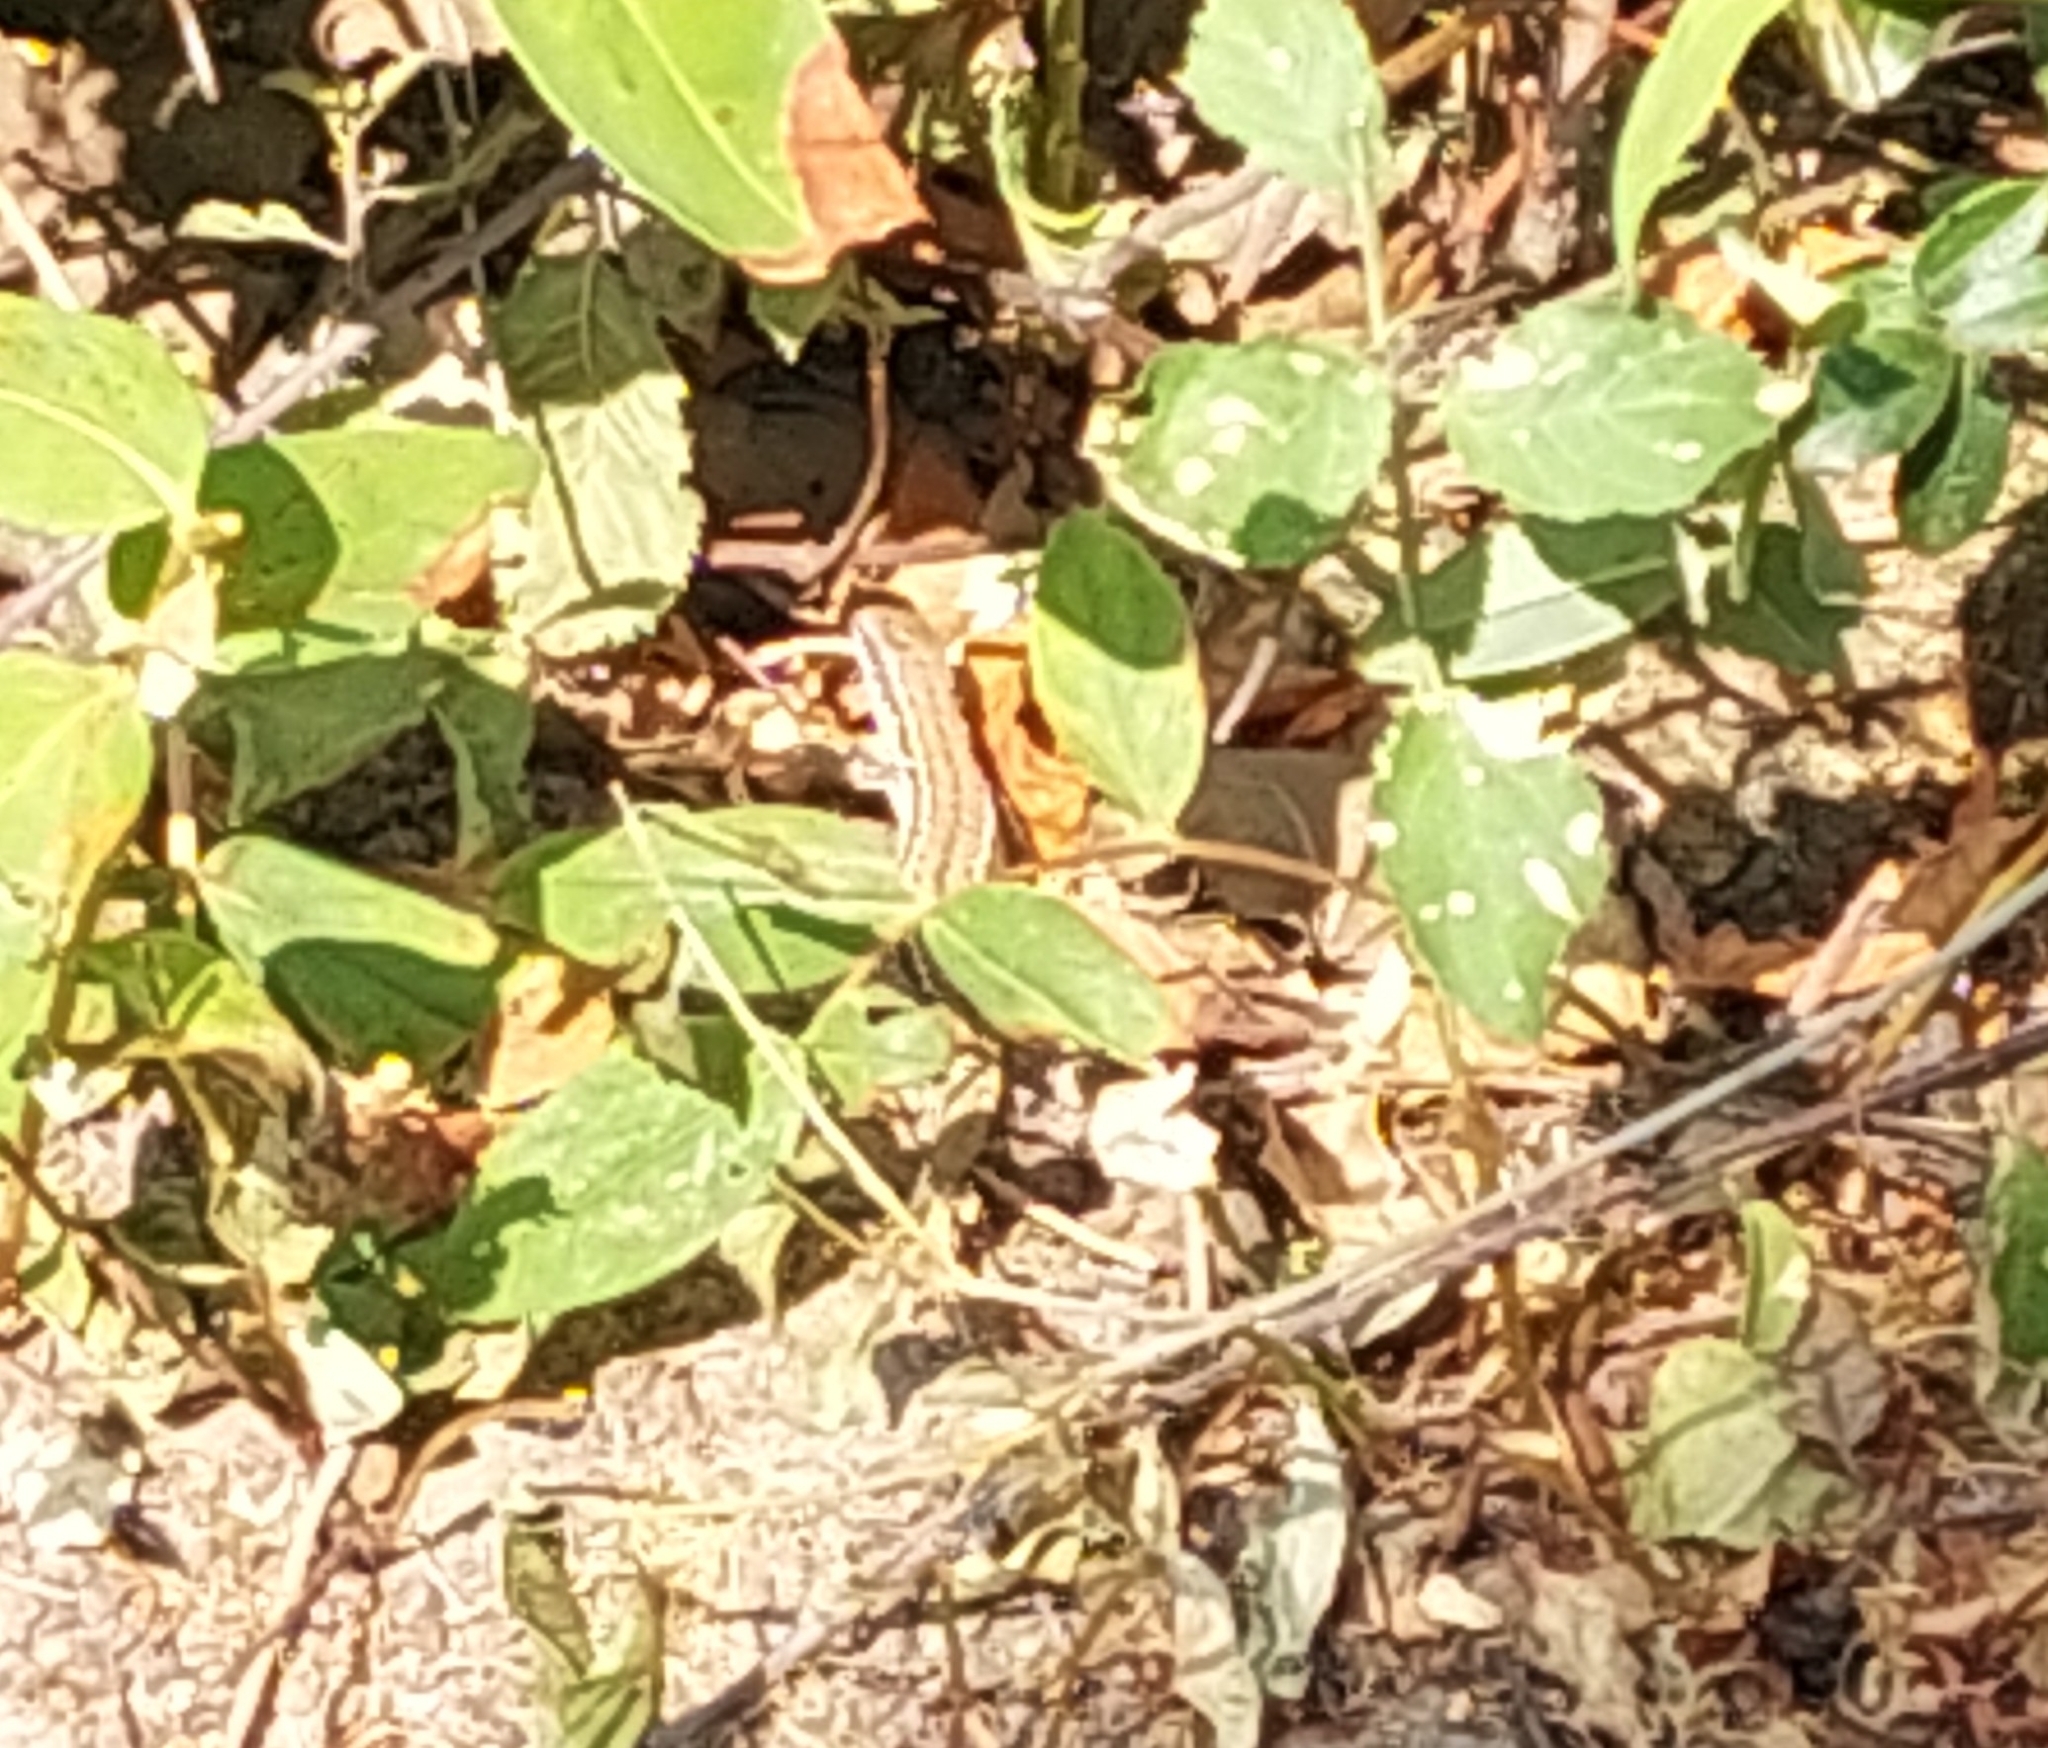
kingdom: Animalia
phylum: Chordata
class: Squamata
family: Lacertidae
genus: Podarcis
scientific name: Podarcis muralis
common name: Common wall lizard
